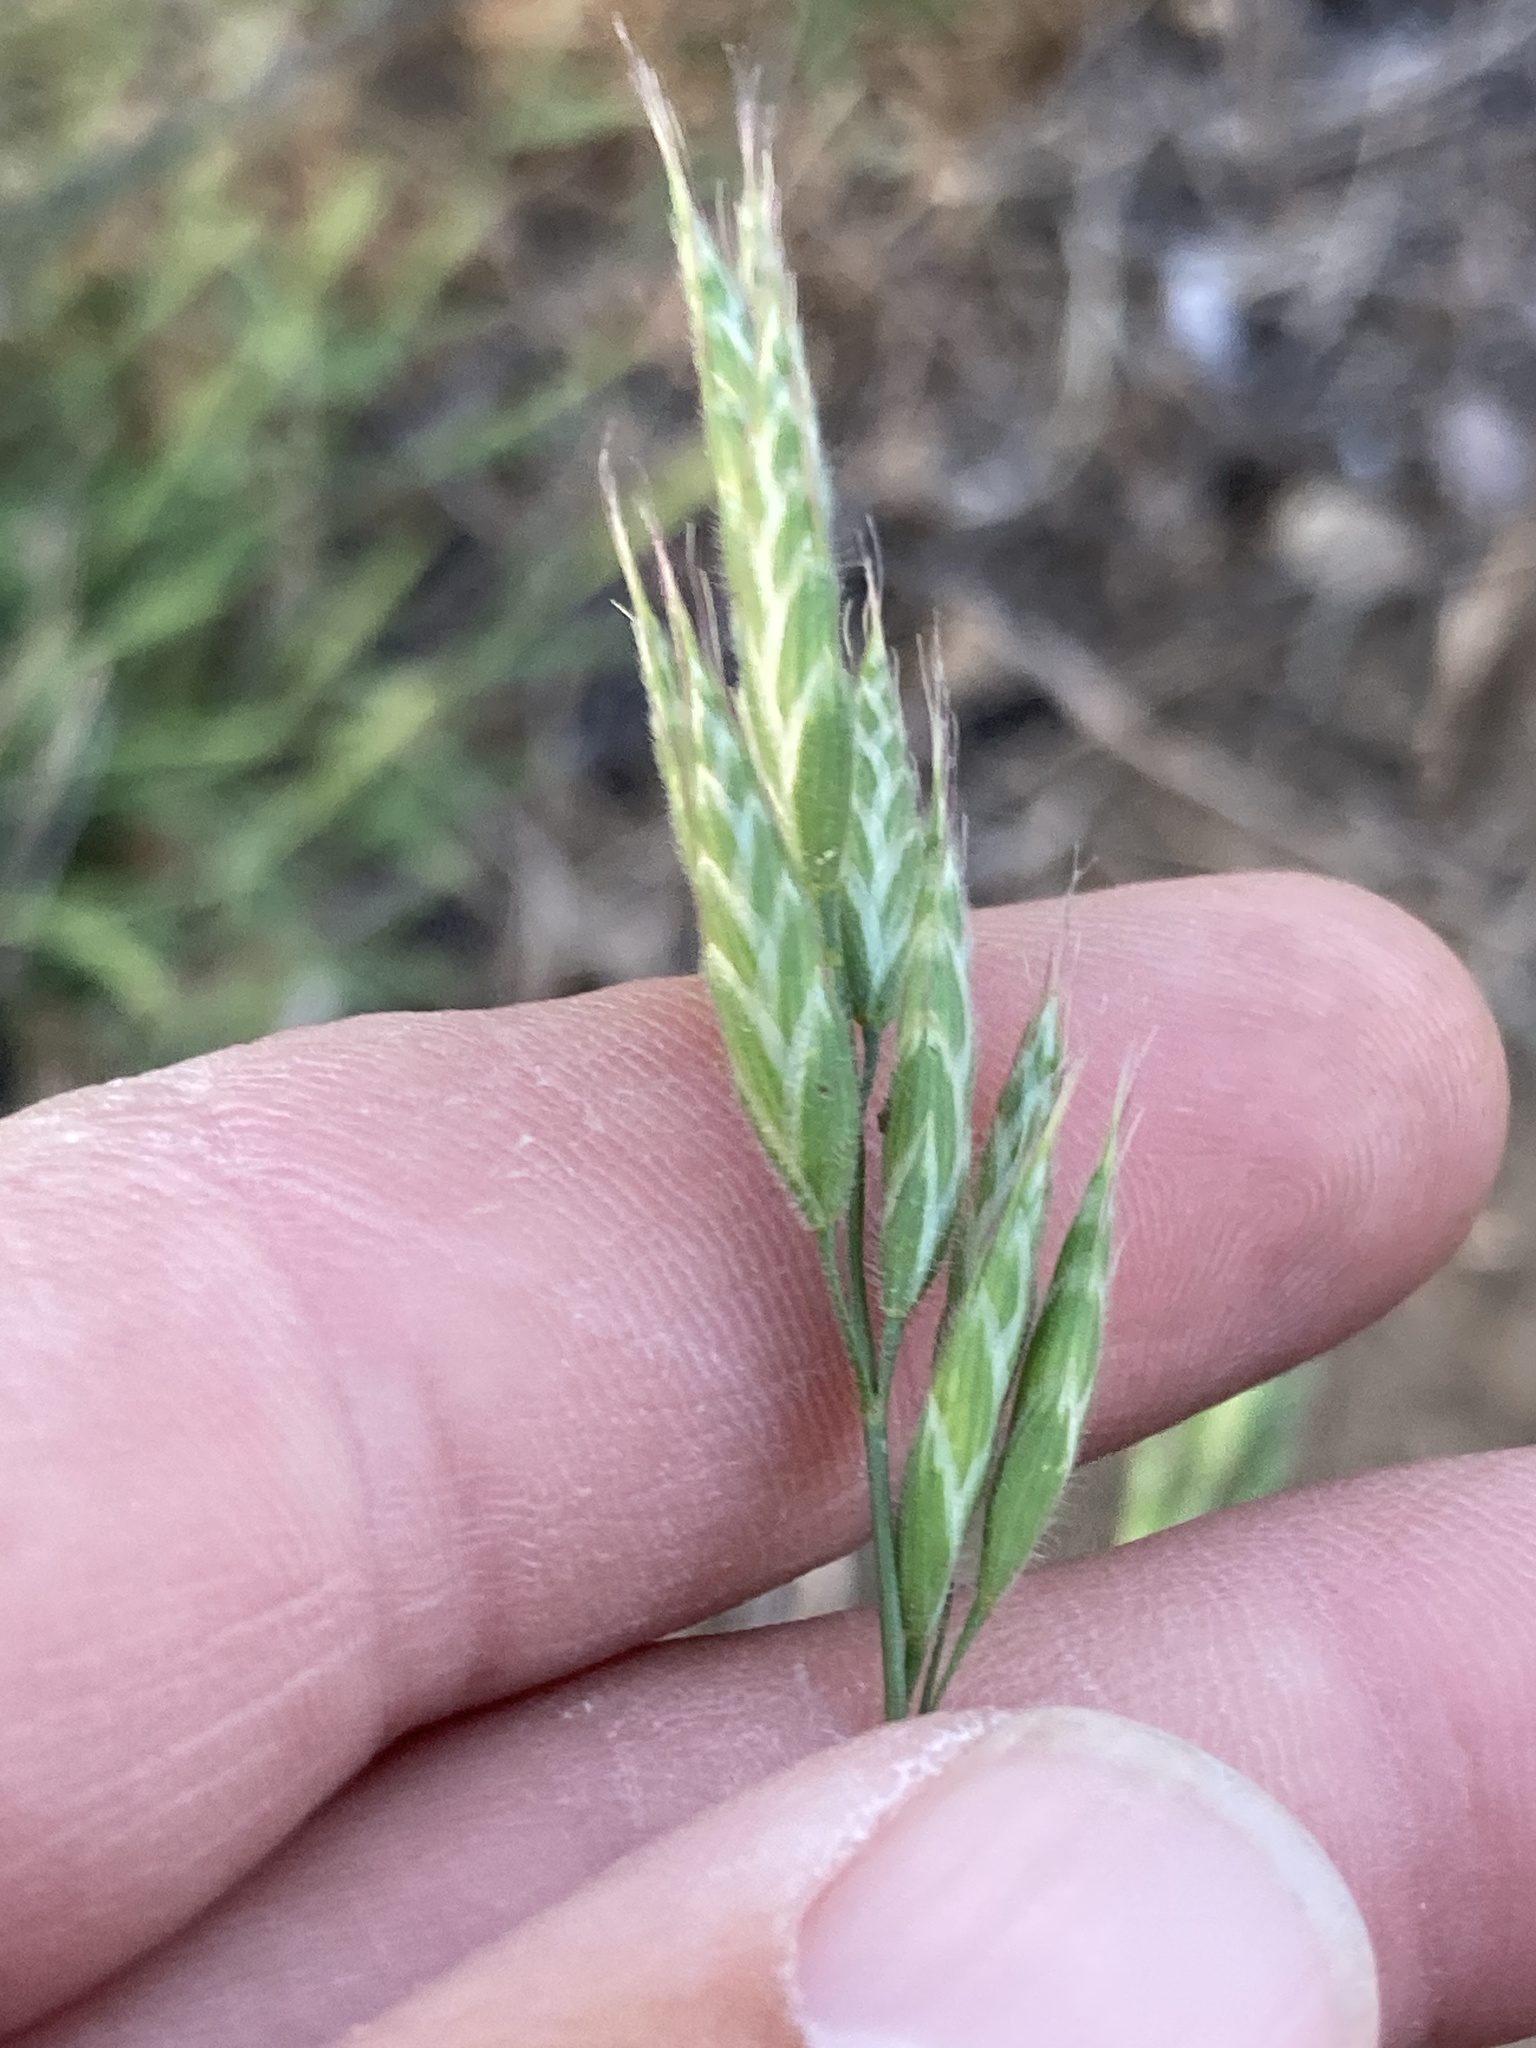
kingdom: Plantae
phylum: Tracheophyta
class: Liliopsida
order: Poales
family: Poaceae
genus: Bromus
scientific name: Bromus hordeaceus
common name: Soft brome
